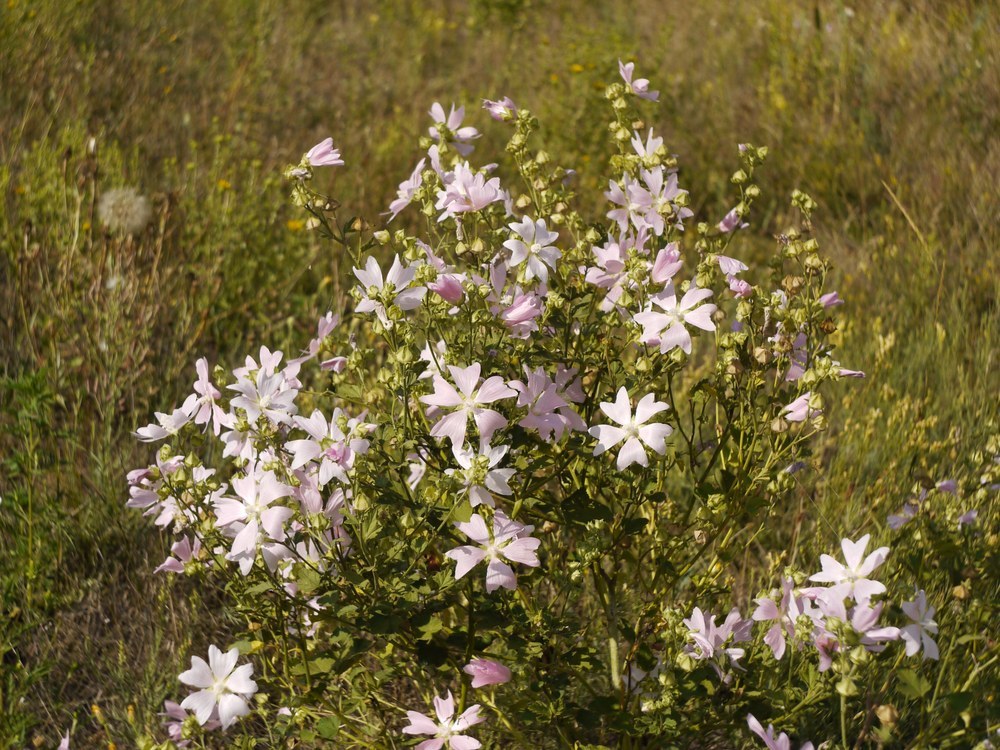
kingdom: Plantae
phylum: Tracheophyta
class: Magnoliopsida
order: Malvales
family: Malvaceae
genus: Malva
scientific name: Malva thuringiaca
